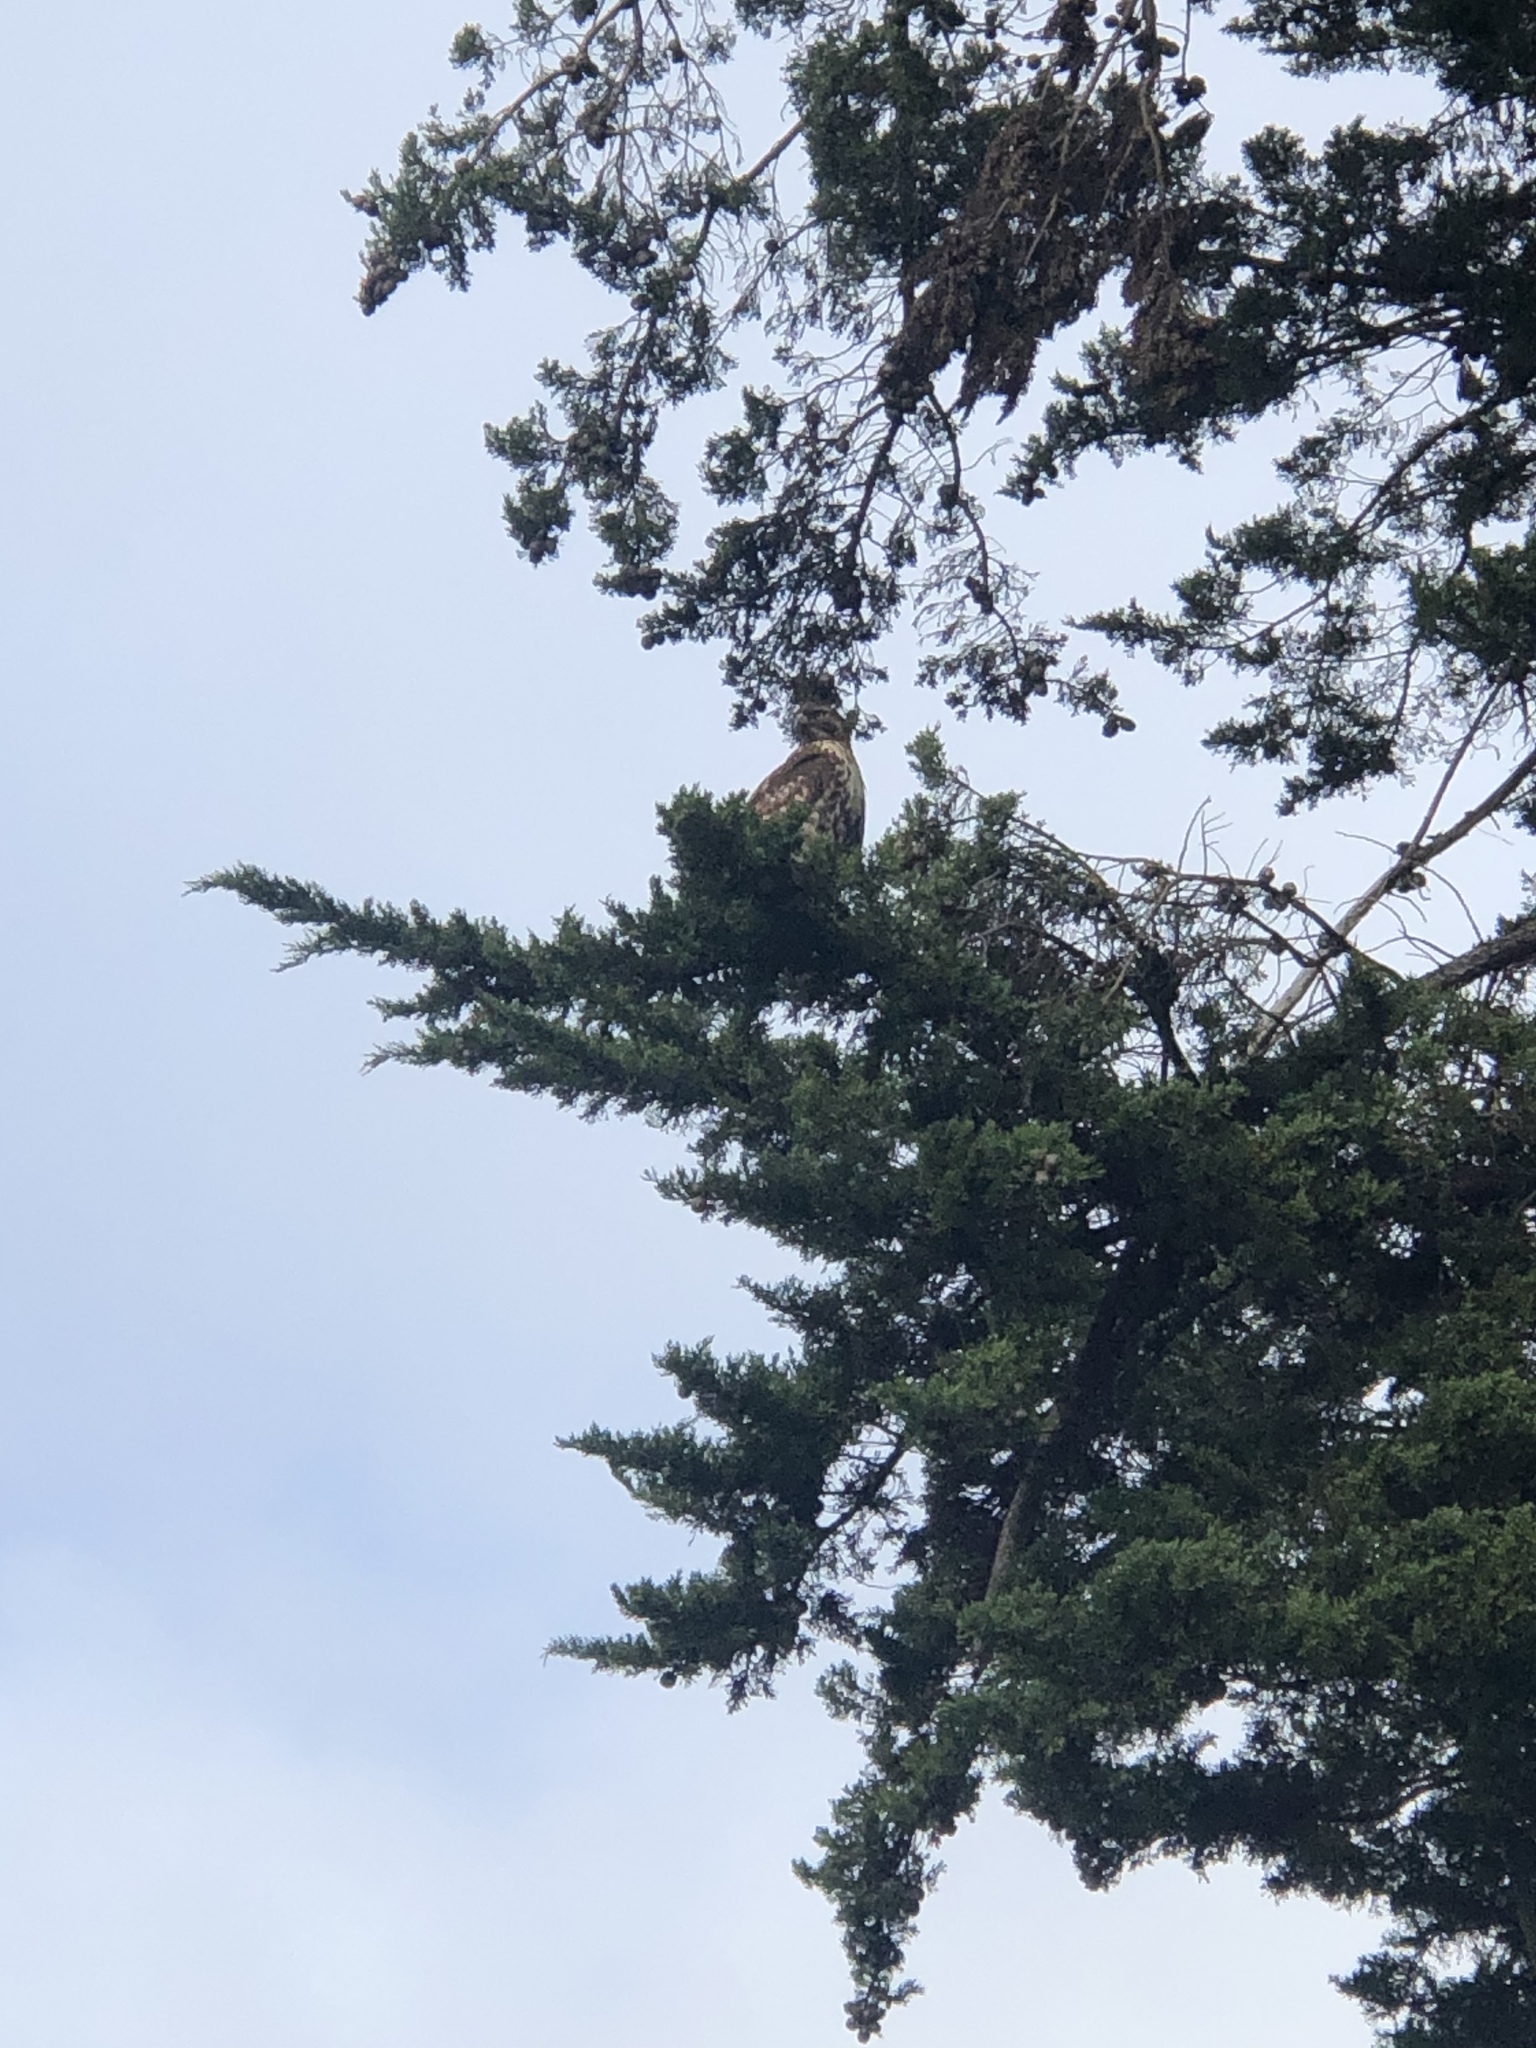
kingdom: Animalia
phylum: Chordata
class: Aves
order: Accipitriformes
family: Accipitridae
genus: Buteo
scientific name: Buteo jamaicensis
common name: Red-tailed hawk
